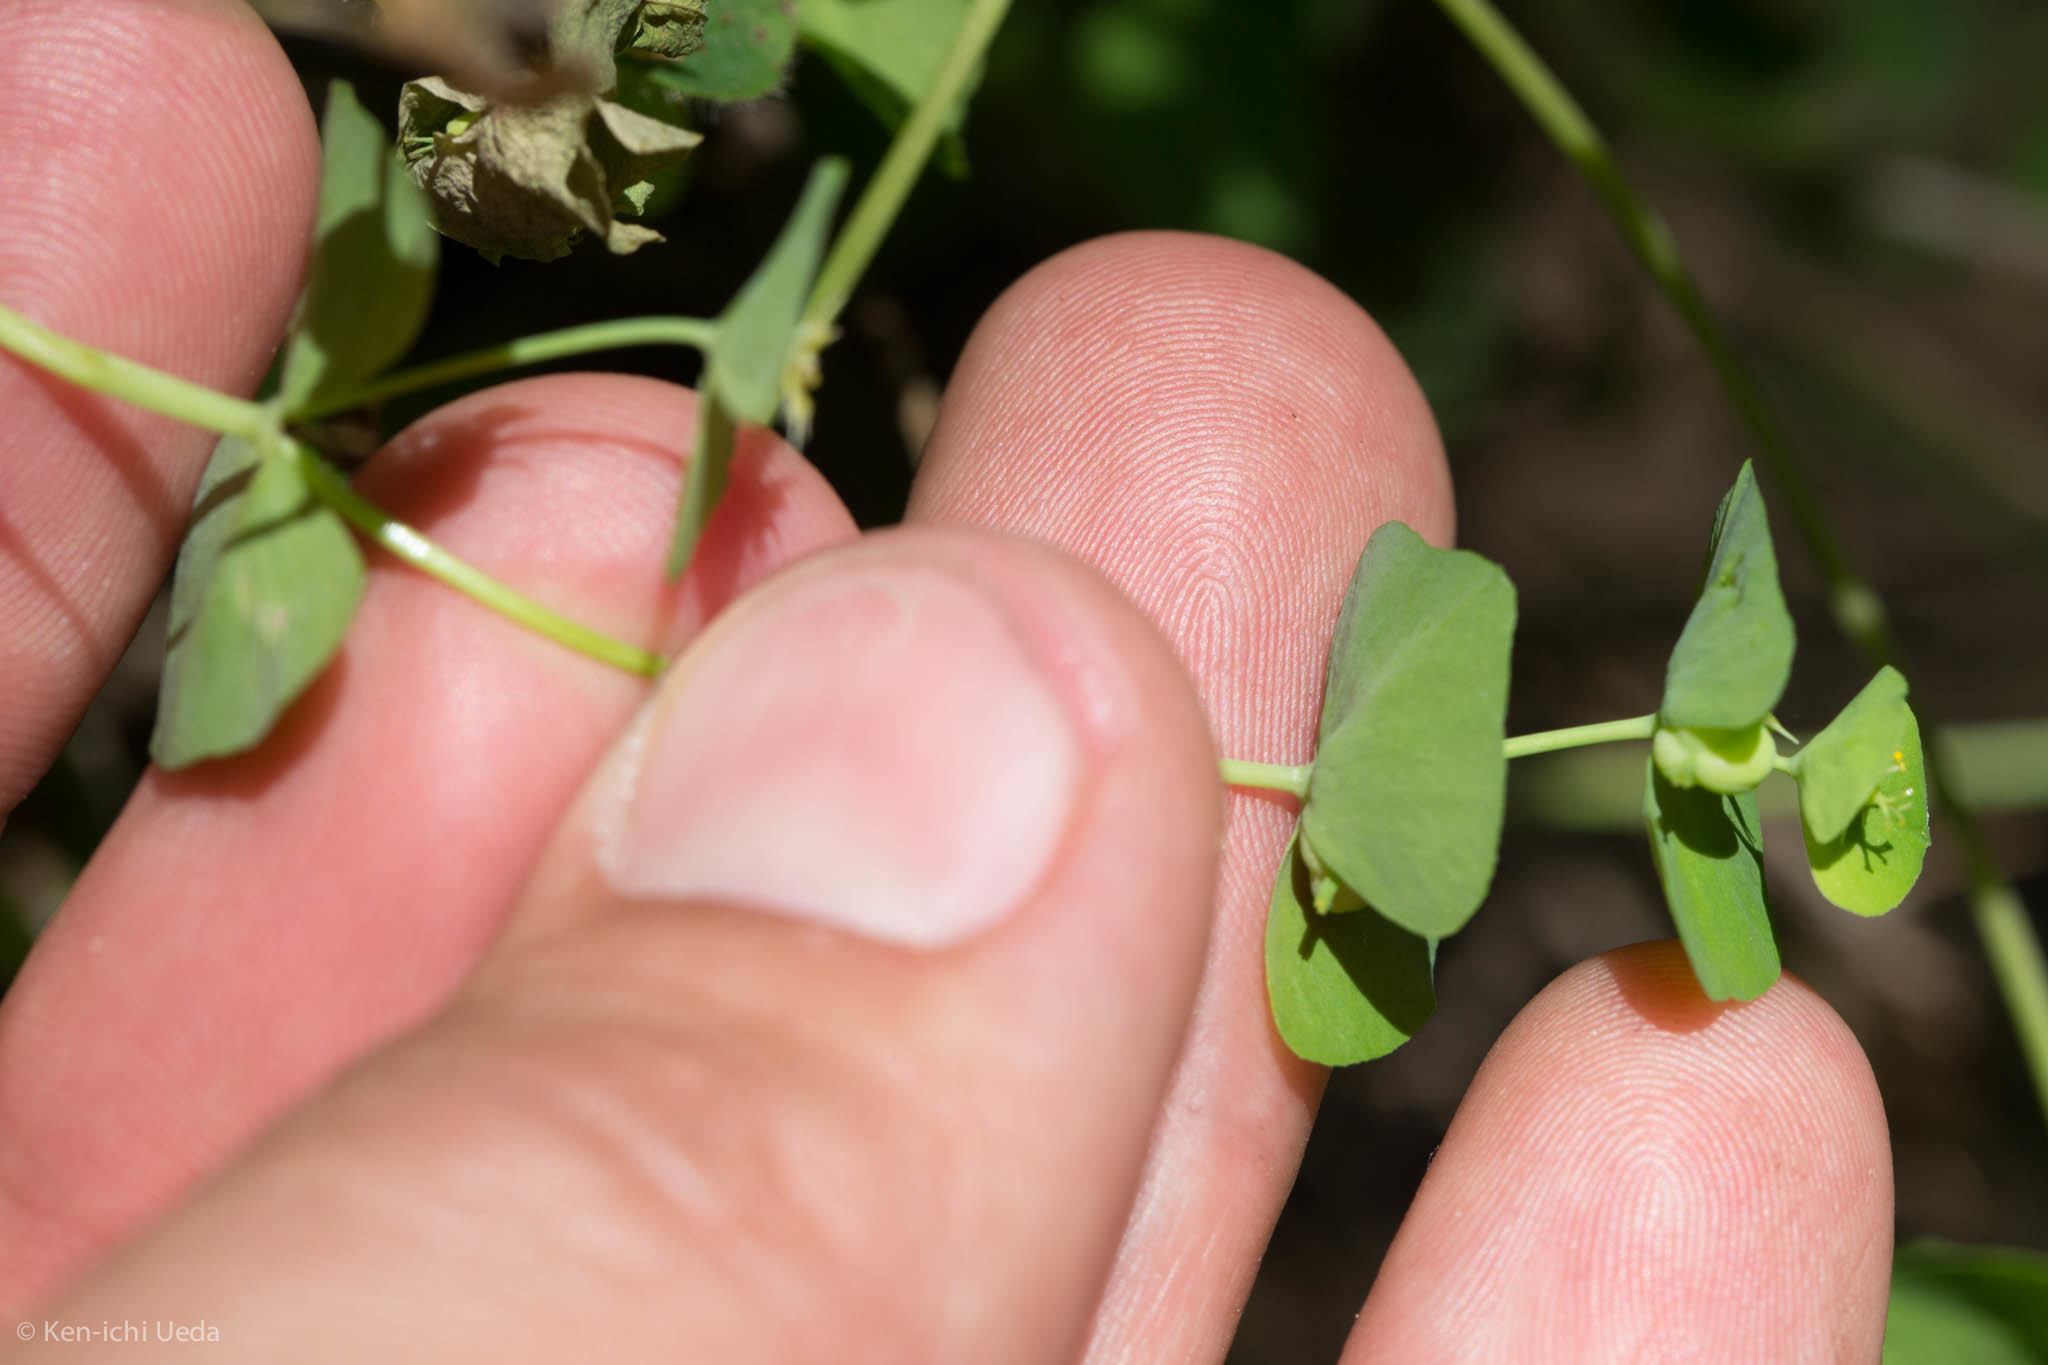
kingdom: Plantae
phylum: Tracheophyta
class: Magnoliopsida
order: Malpighiales
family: Euphorbiaceae
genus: Euphorbia
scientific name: Euphorbia crenulata
